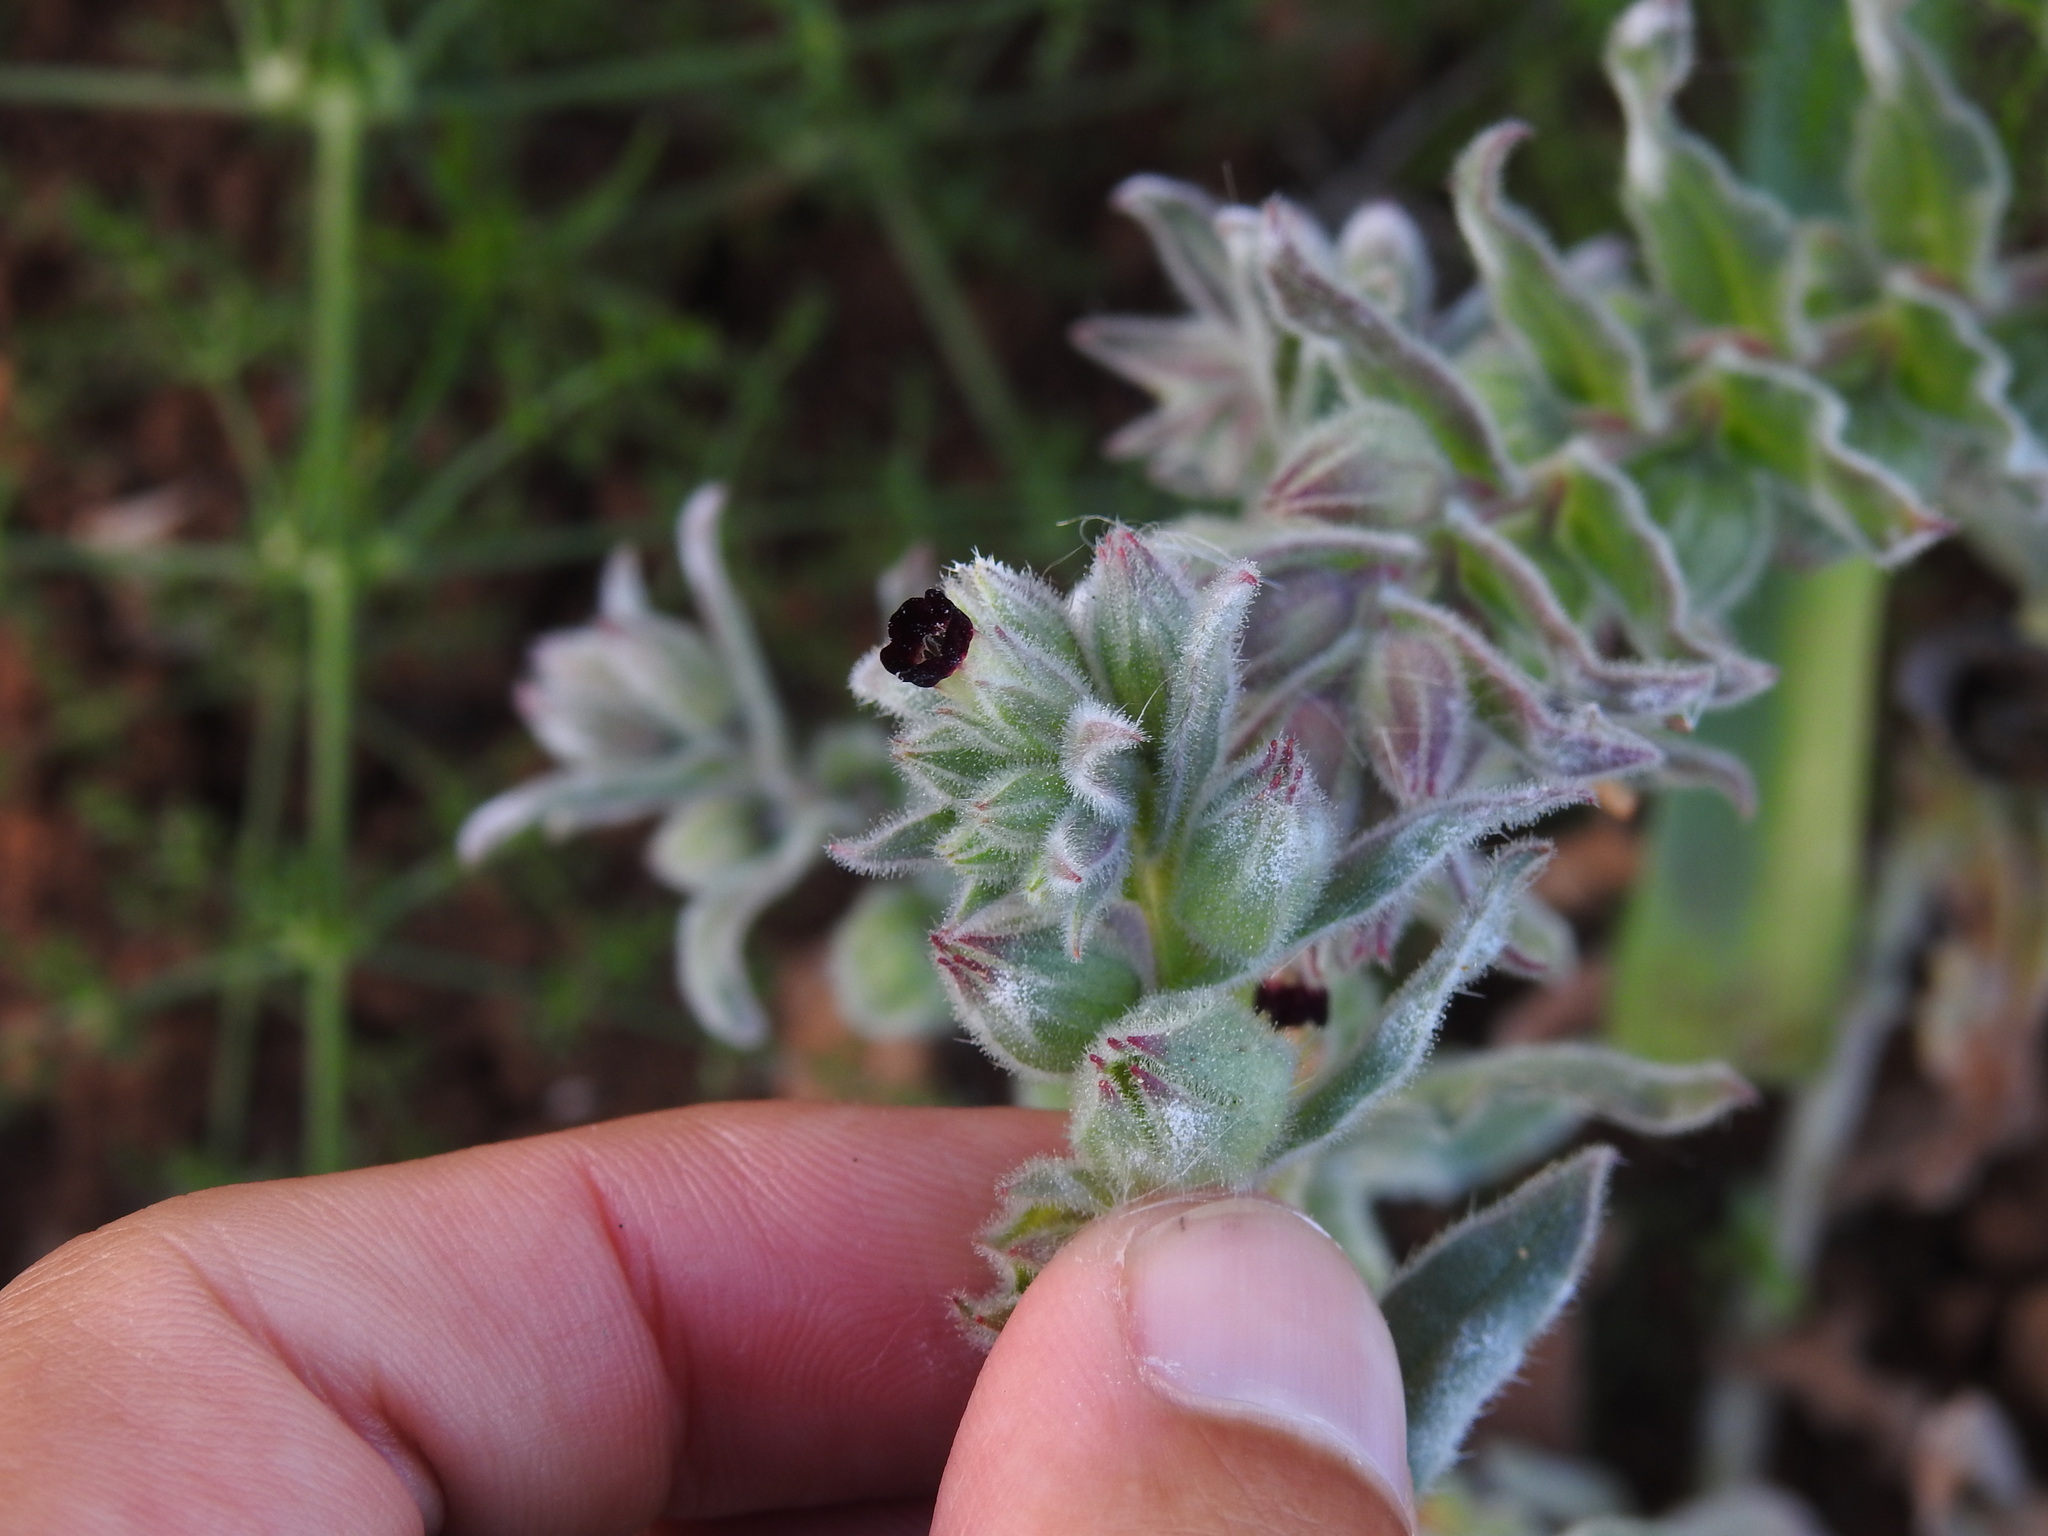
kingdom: Plantae
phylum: Tracheophyta
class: Magnoliopsida
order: Boraginales
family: Boraginaceae
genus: Nonea
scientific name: Nonea vesicaria
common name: Red monkswort
